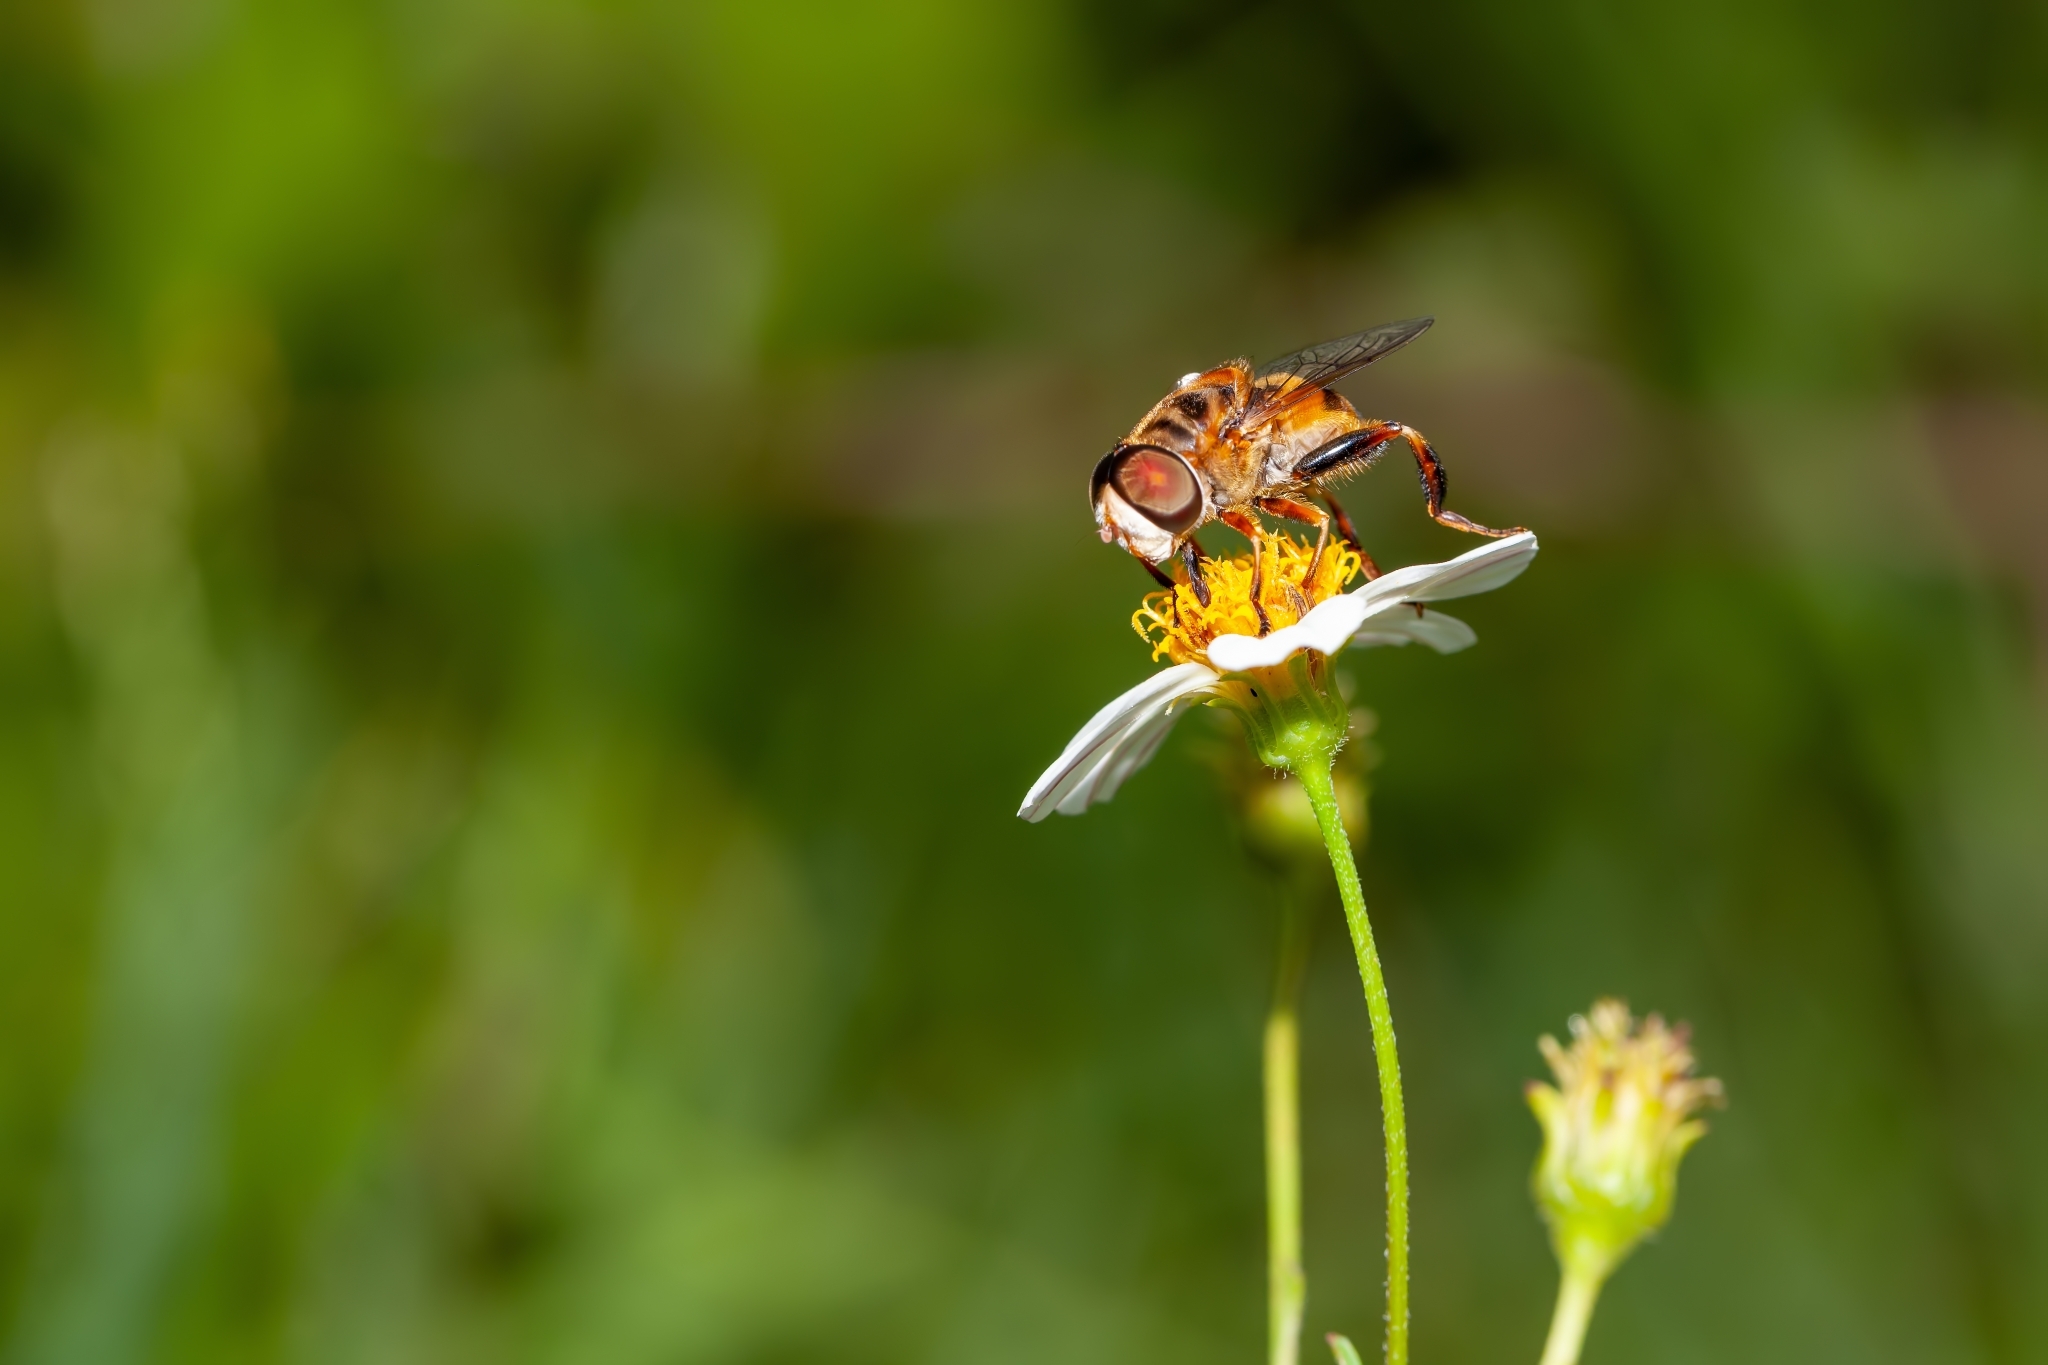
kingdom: Animalia
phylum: Arthropoda
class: Insecta
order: Diptera
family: Syrphidae
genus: Palpada
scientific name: Palpada vinetorum
